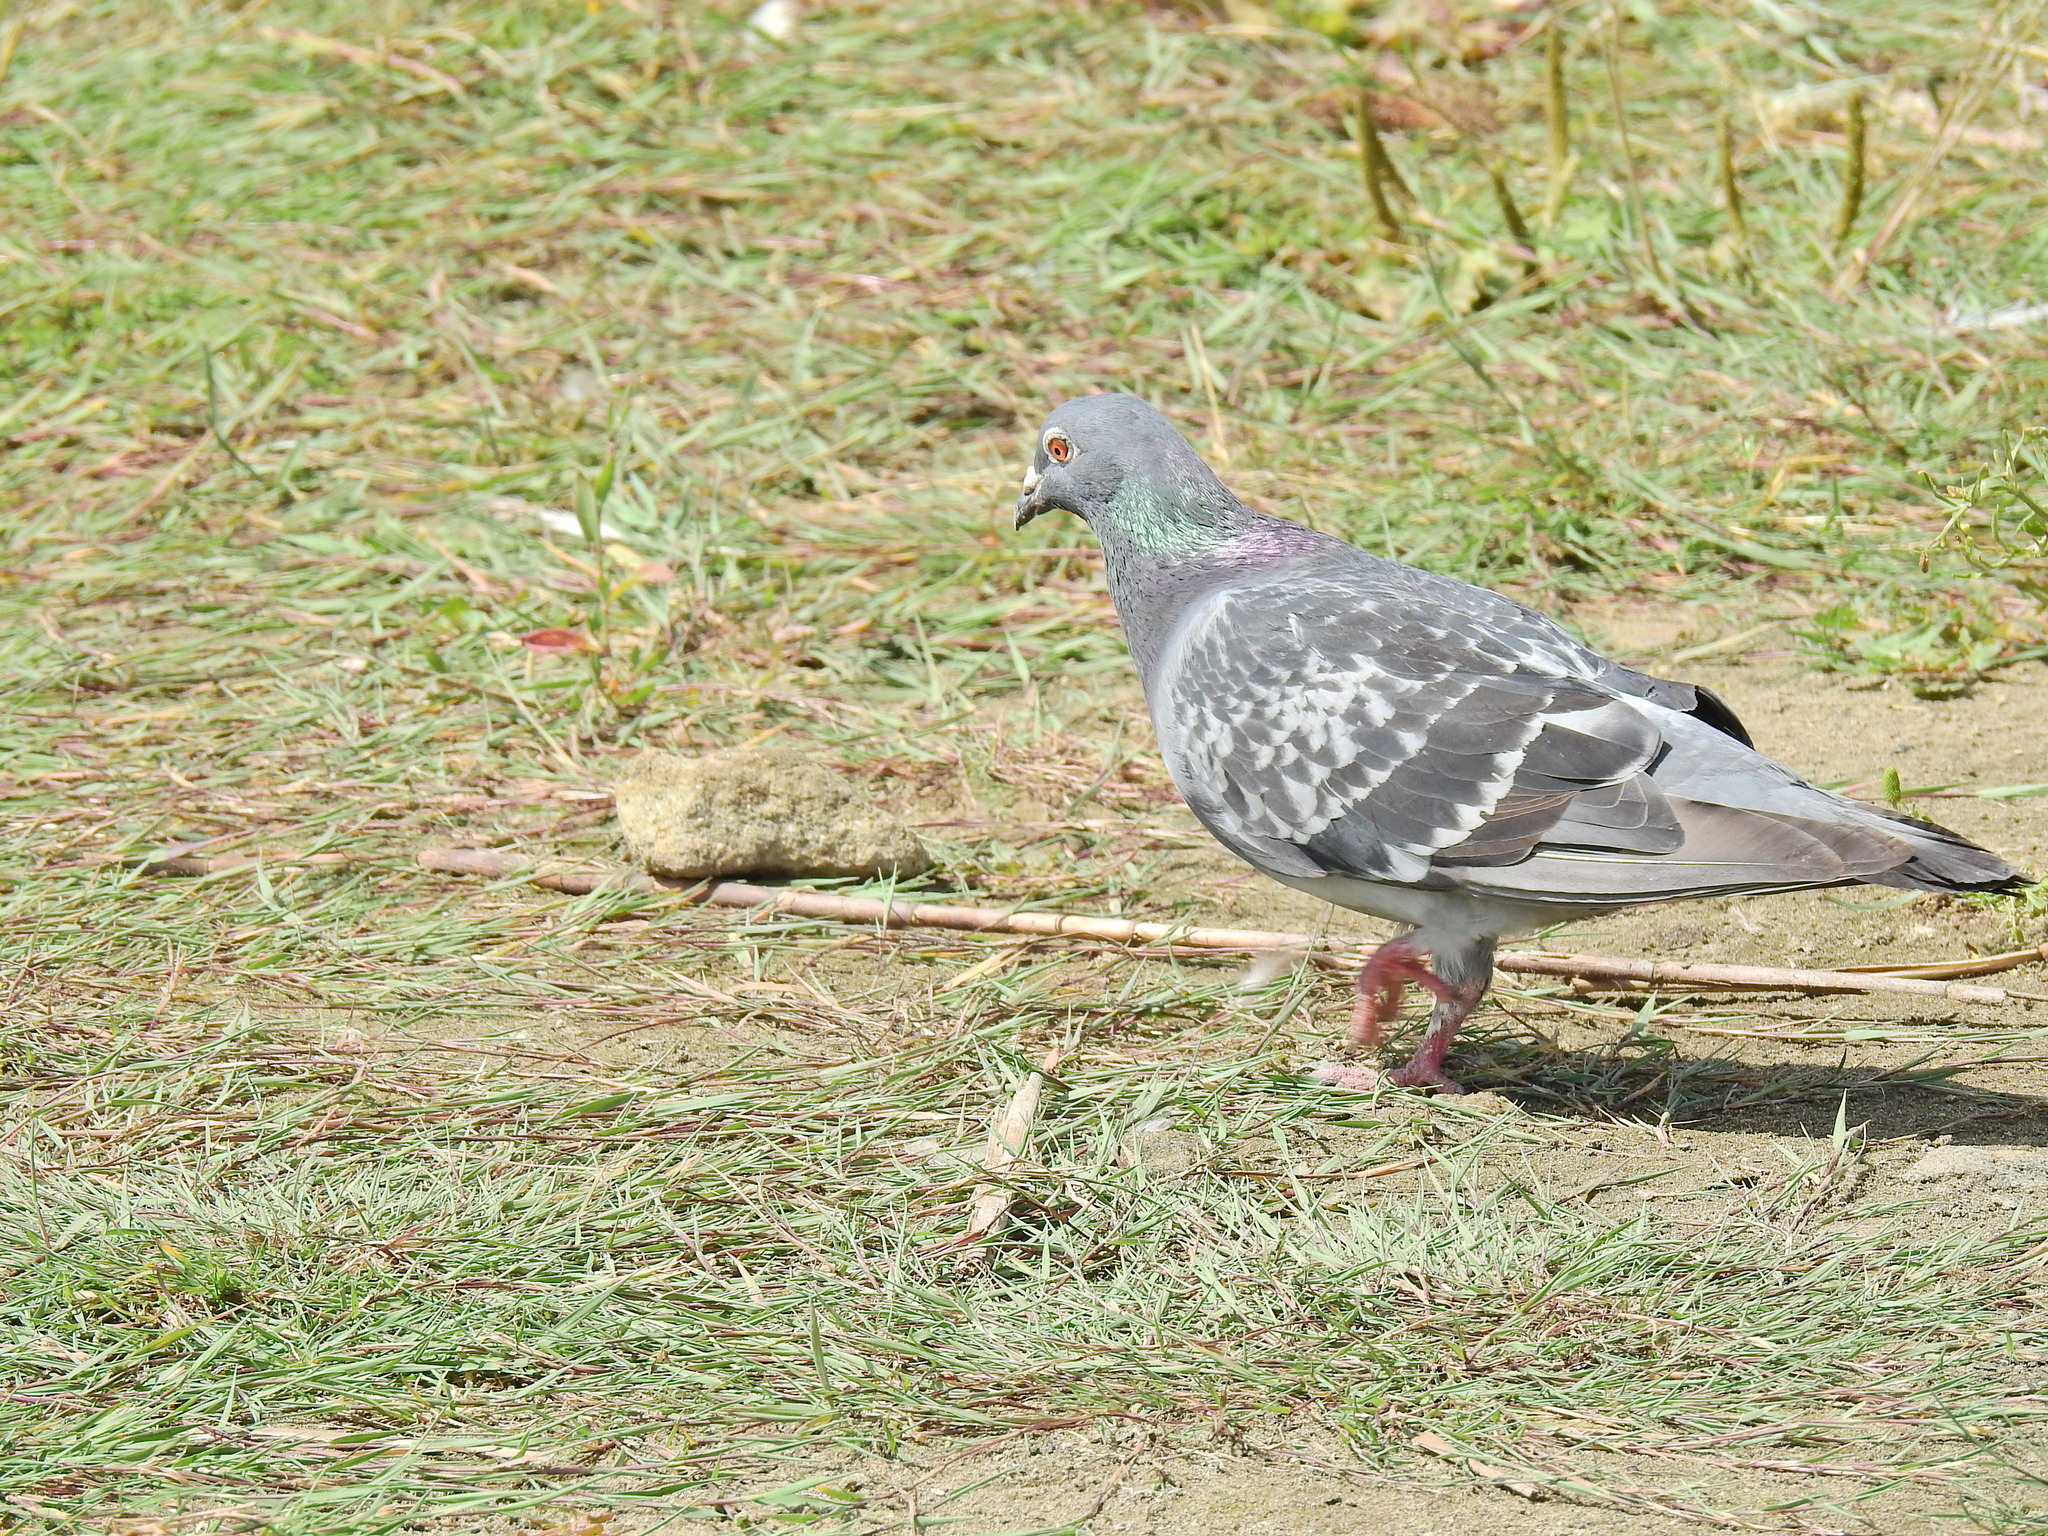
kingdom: Animalia
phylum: Chordata
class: Aves
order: Columbiformes
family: Columbidae
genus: Columba
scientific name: Columba livia
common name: Rock pigeon
